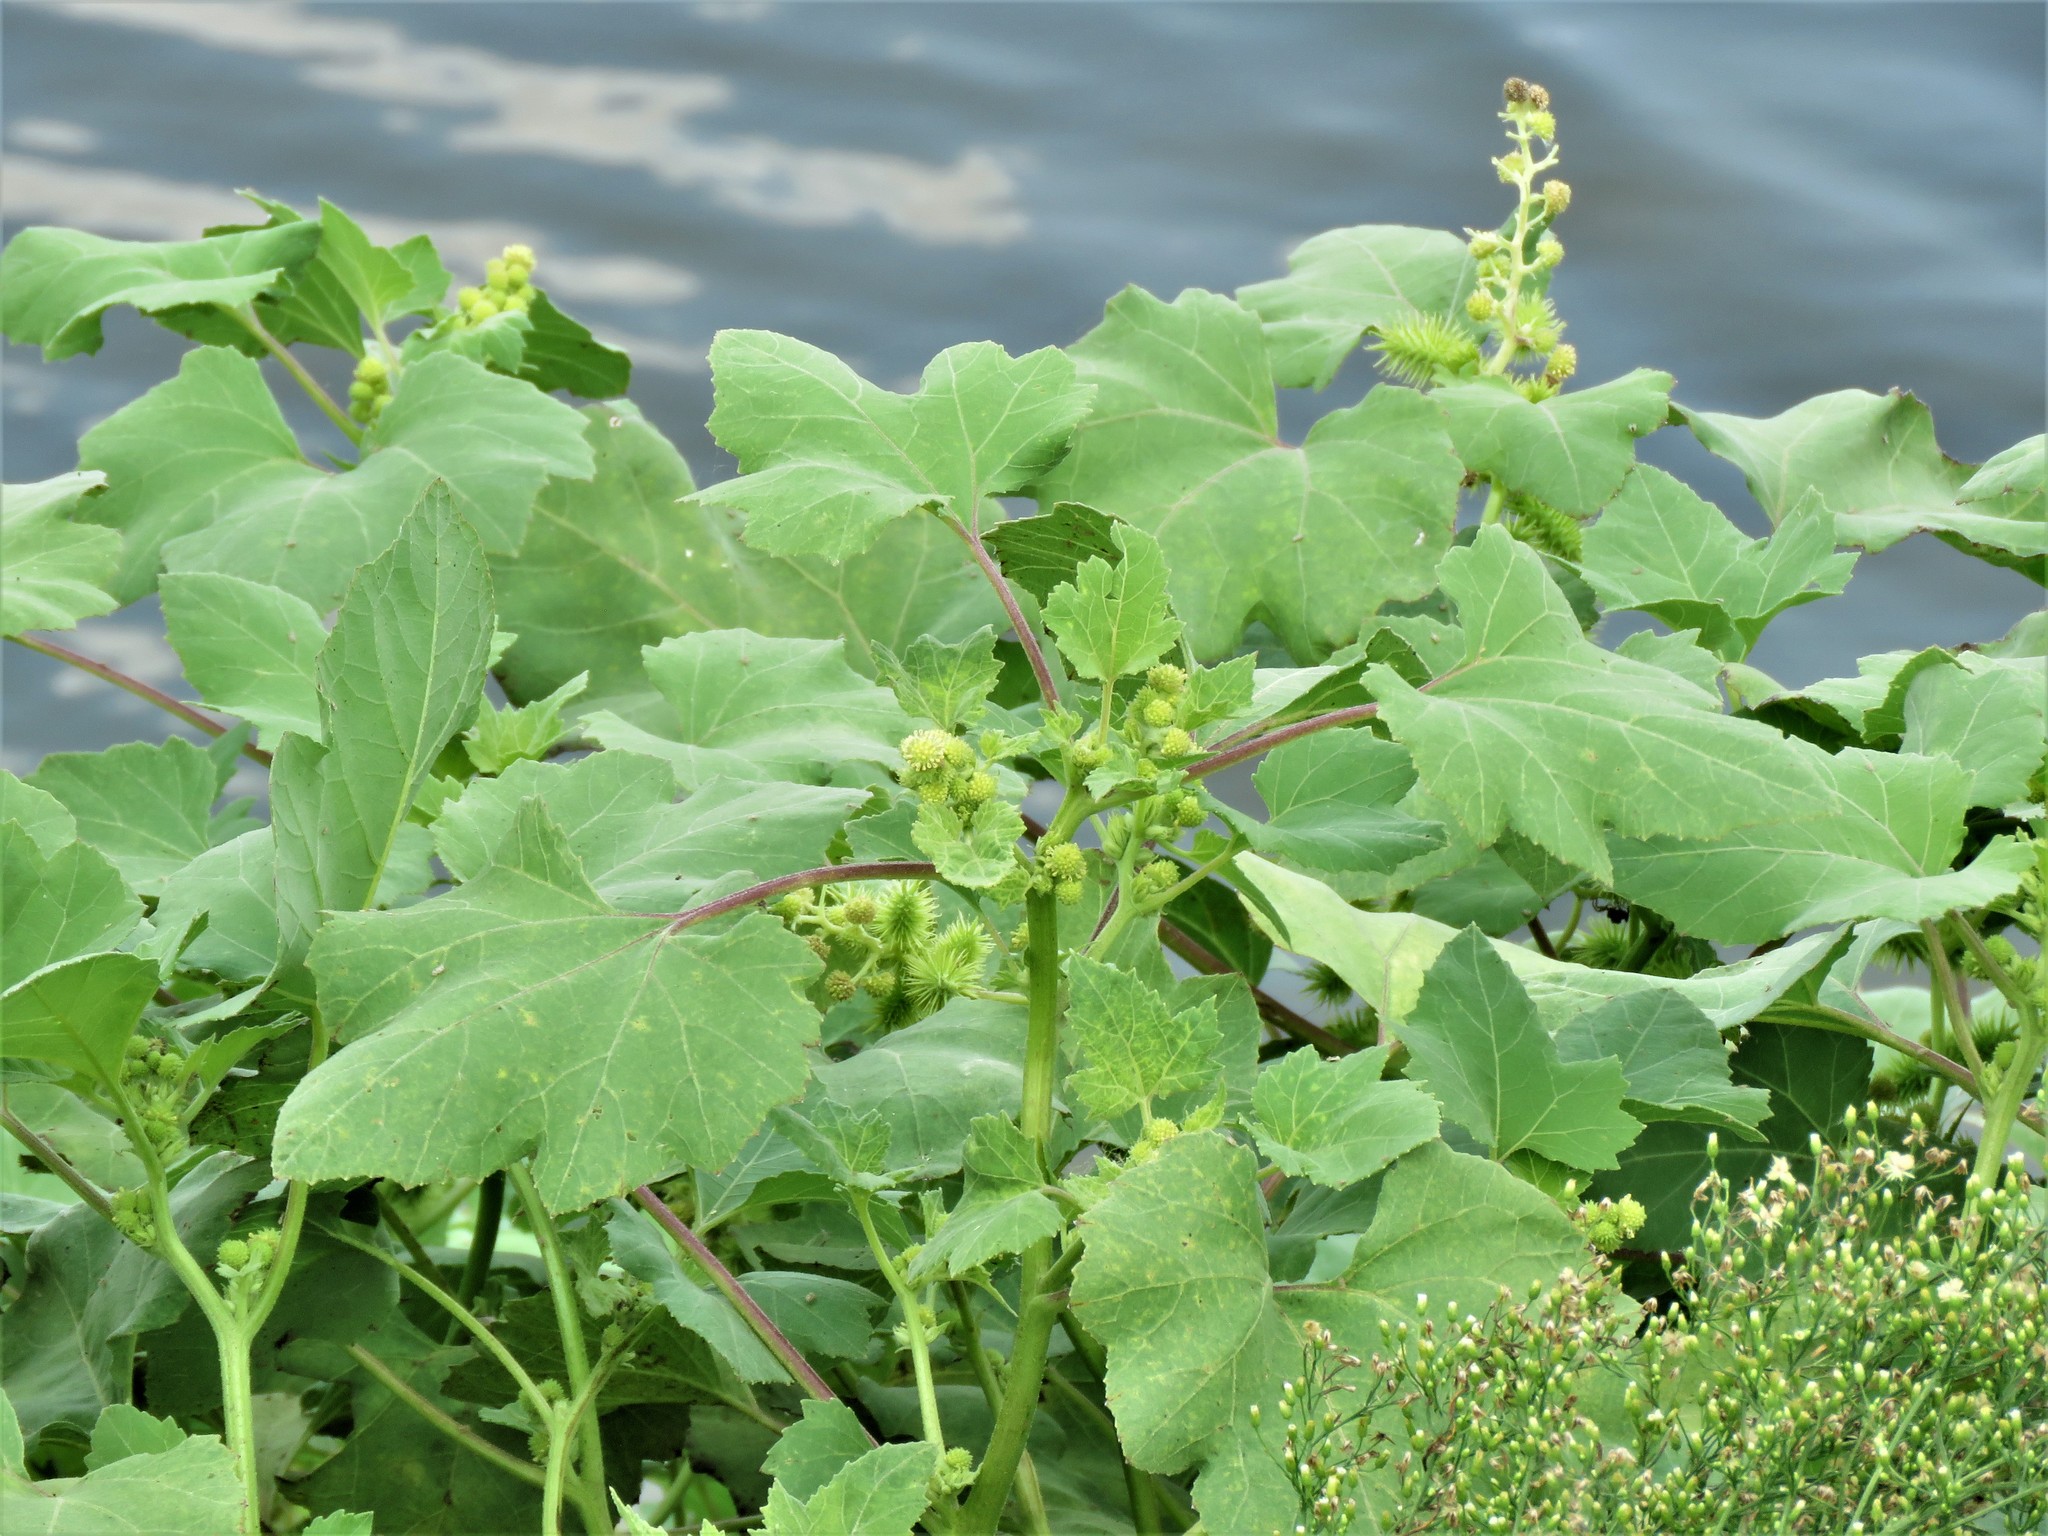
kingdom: Plantae
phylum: Tracheophyta
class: Magnoliopsida
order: Asterales
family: Asteraceae
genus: Xanthium
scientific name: Xanthium strumarium
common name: Rough cocklebur
